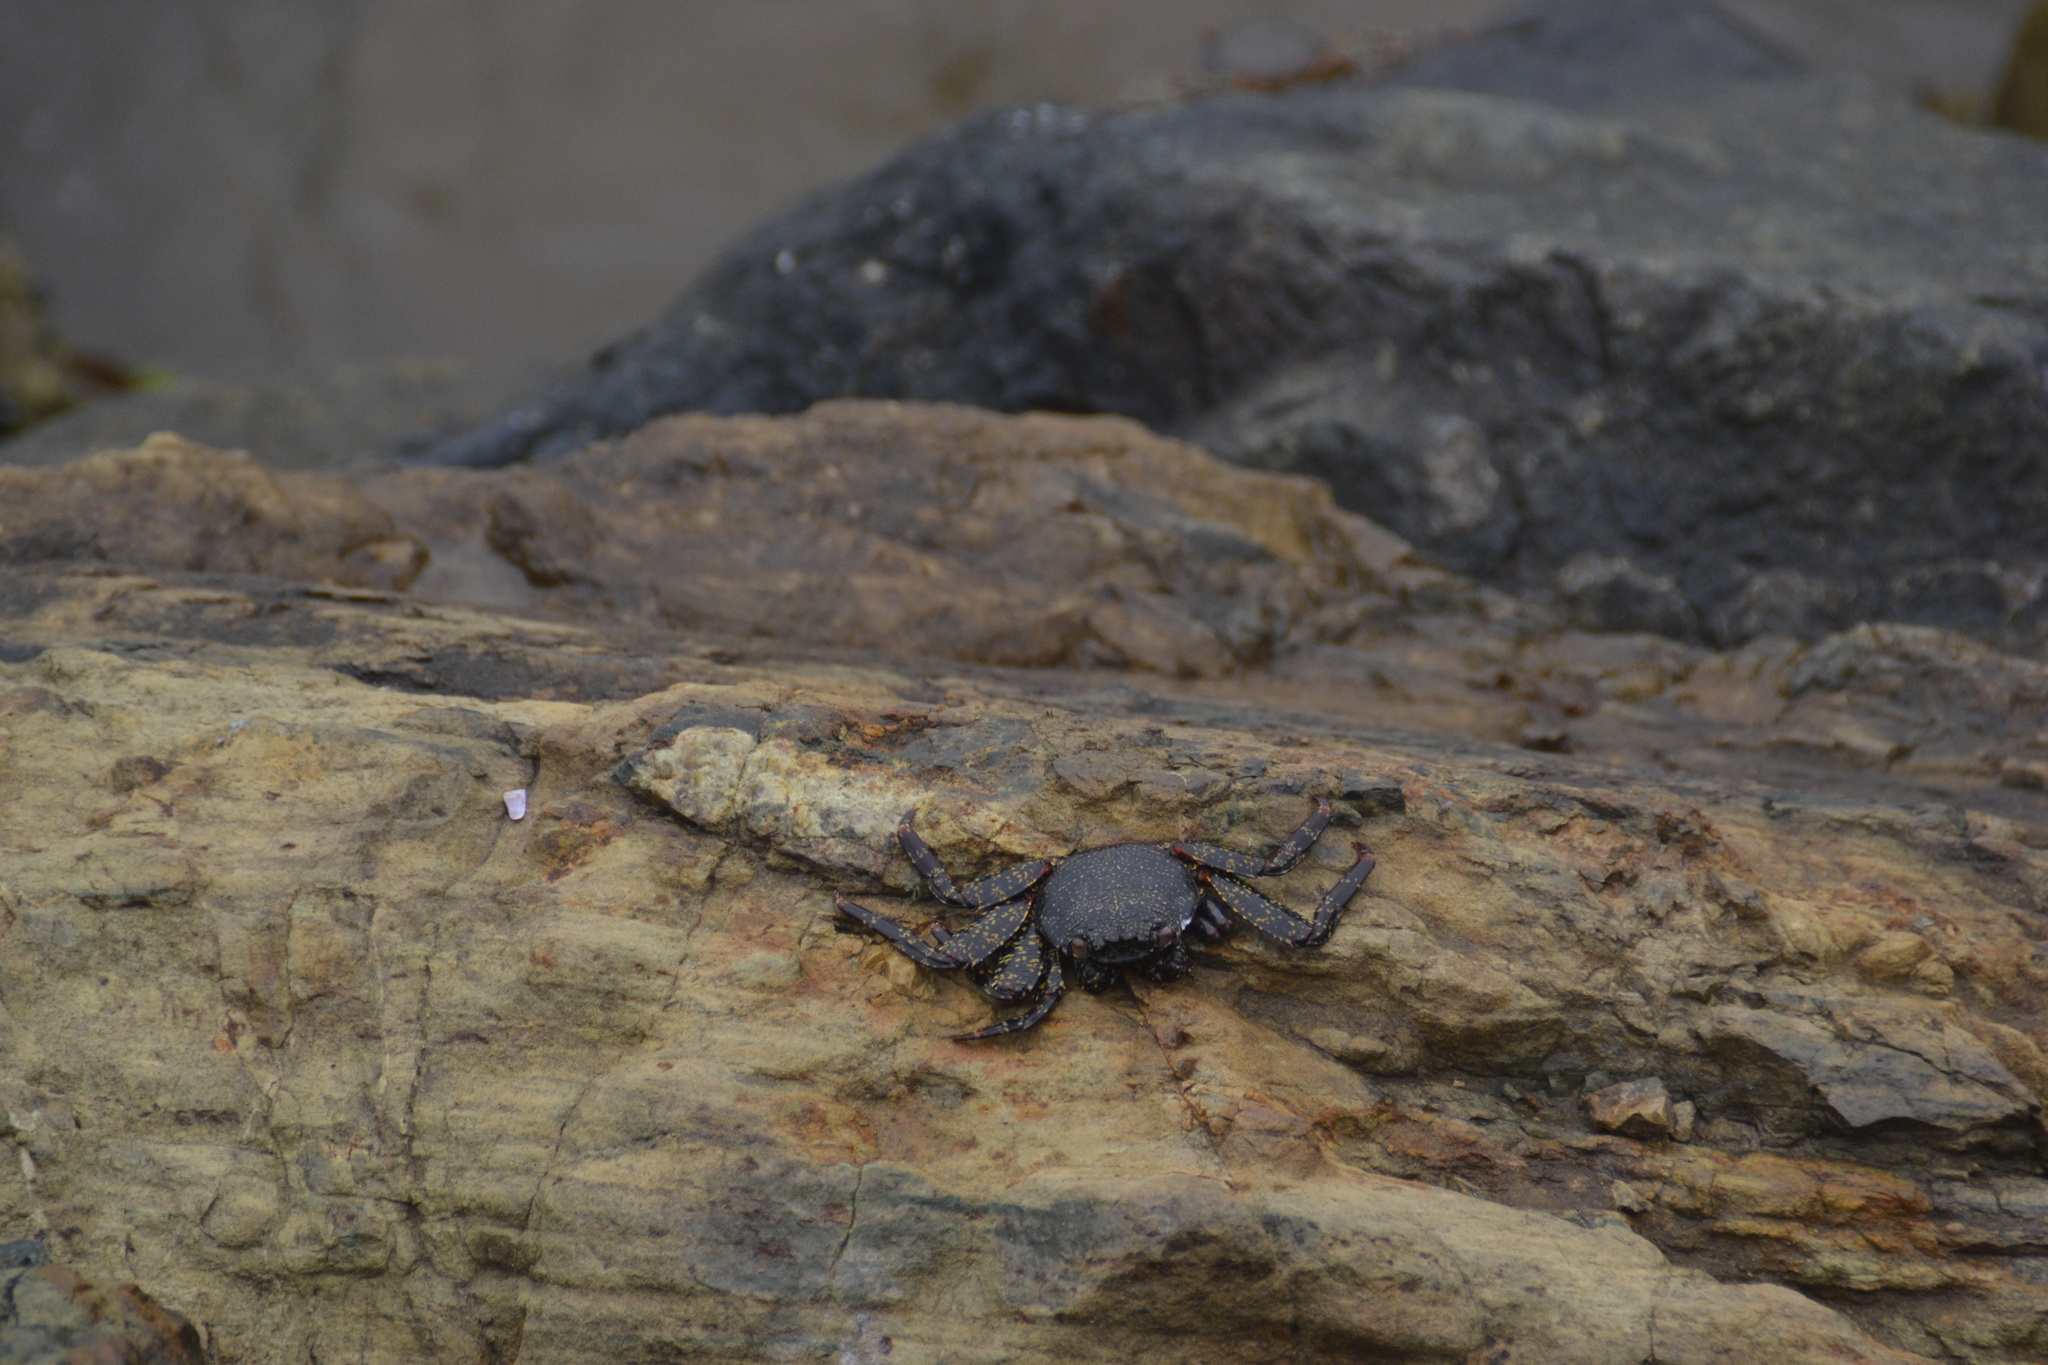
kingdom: Animalia
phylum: Arthropoda
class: Malacostraca
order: Decapoda
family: Grapsidae
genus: Grapsus
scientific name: Grapsus grapsus
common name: Sally lightfoot
